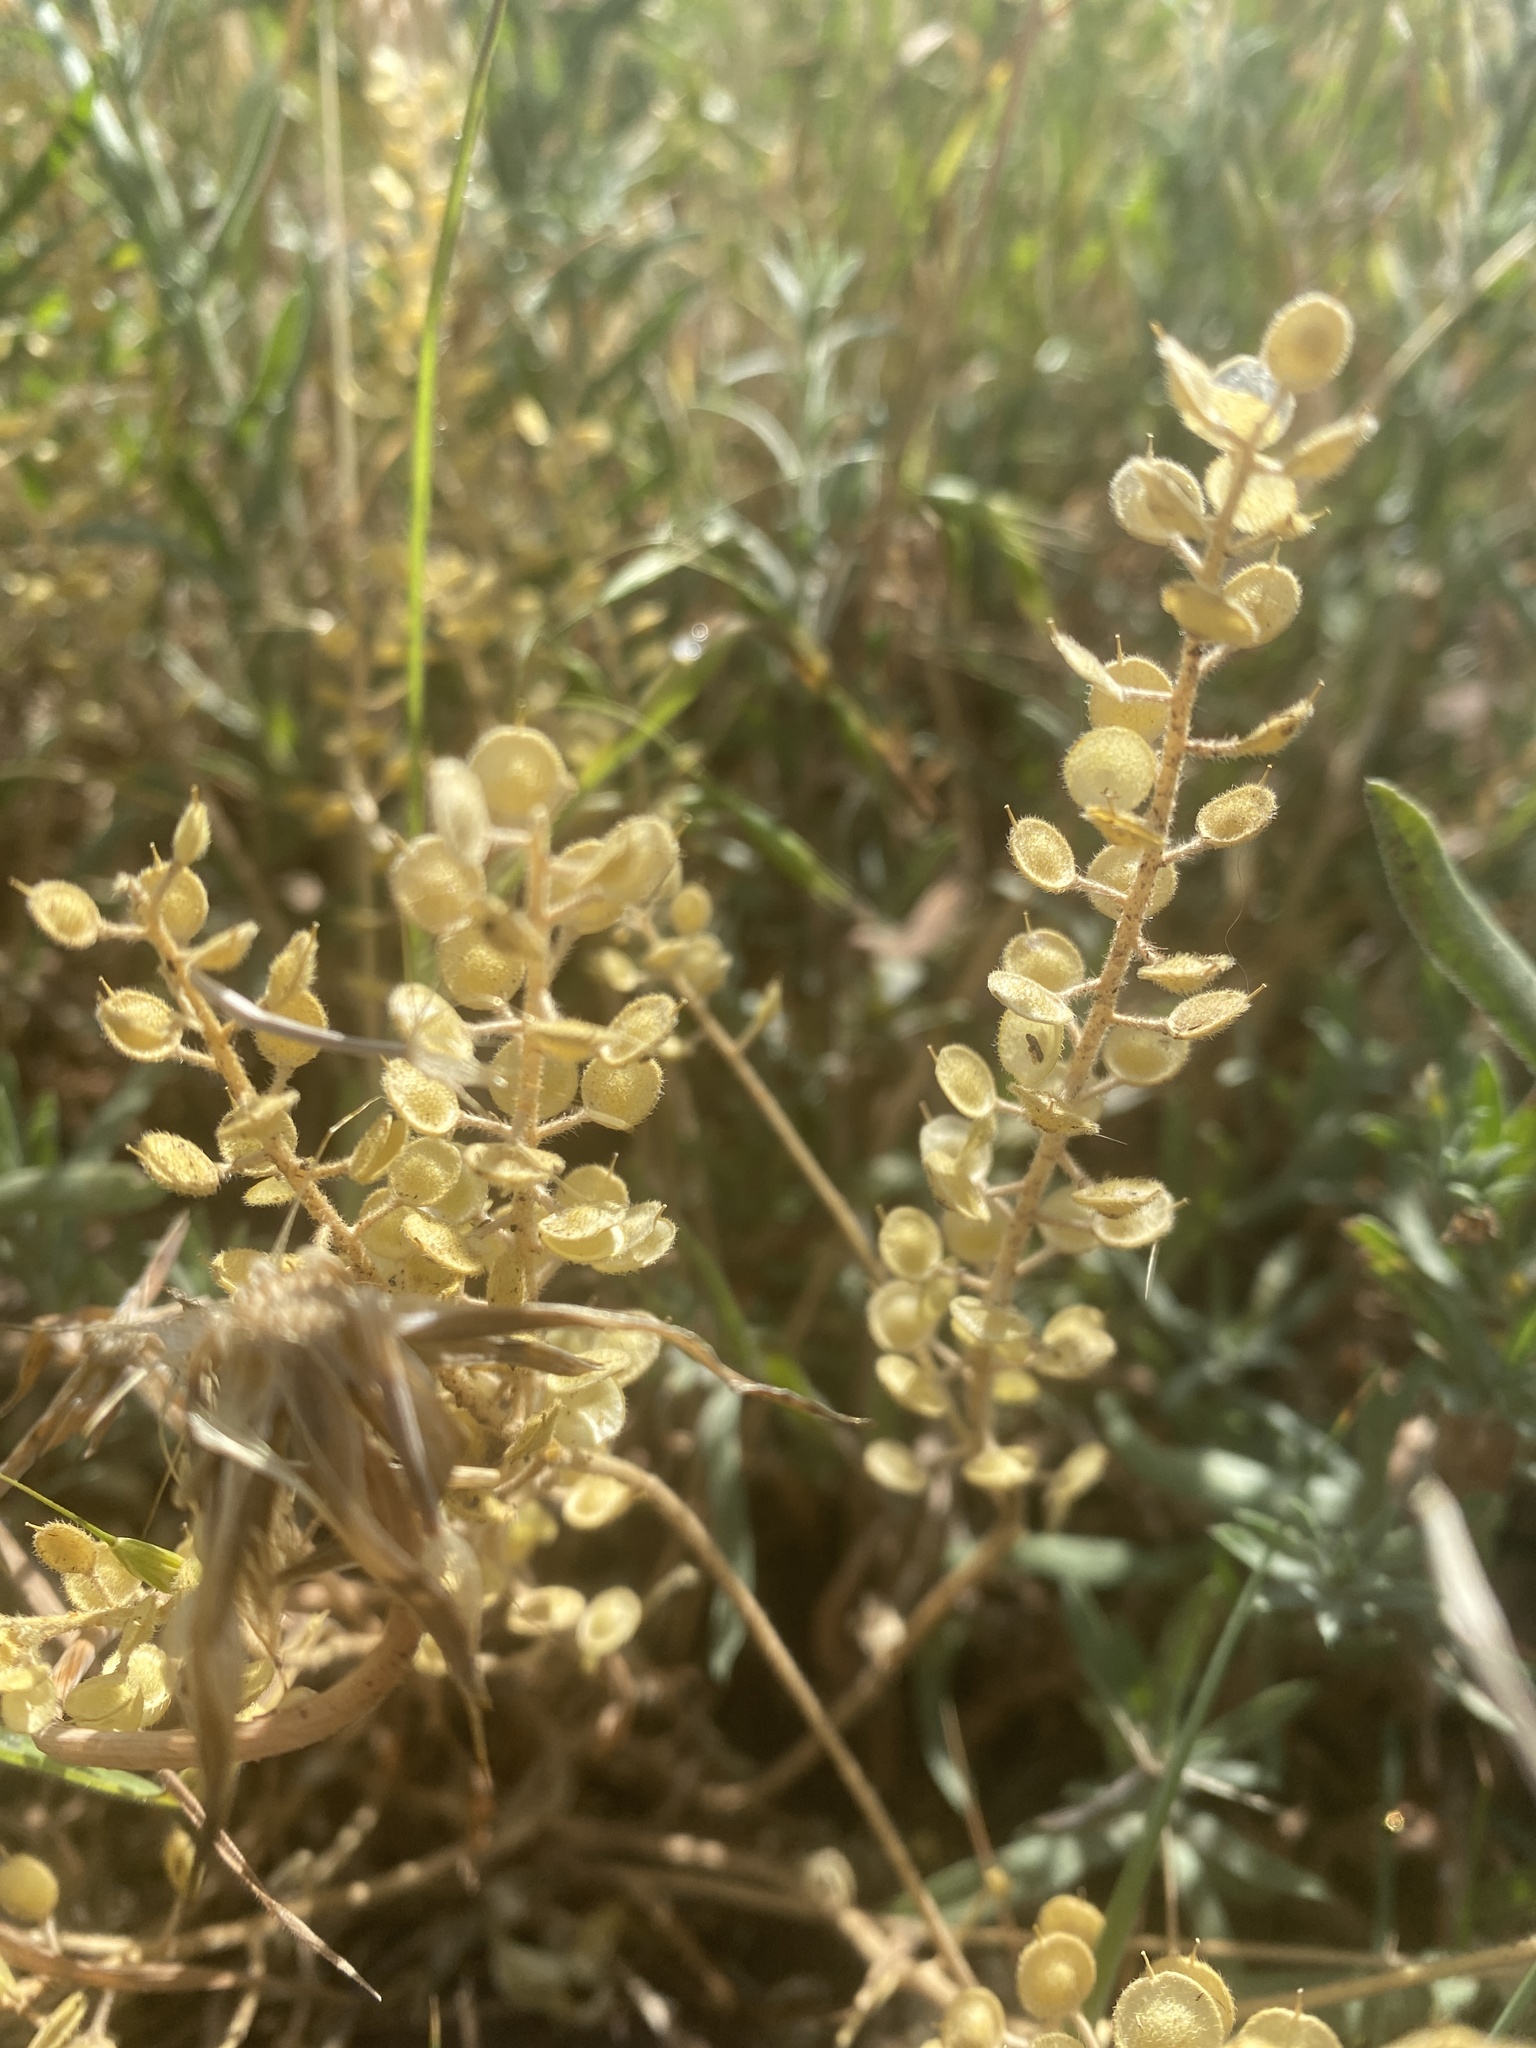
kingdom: Plantae
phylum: Tracheophyta
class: Magnoliopsida
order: Brassicales
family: Brassicaceae
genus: Lepidium
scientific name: Lepidium densiflorum
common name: Miner's pepperwort
